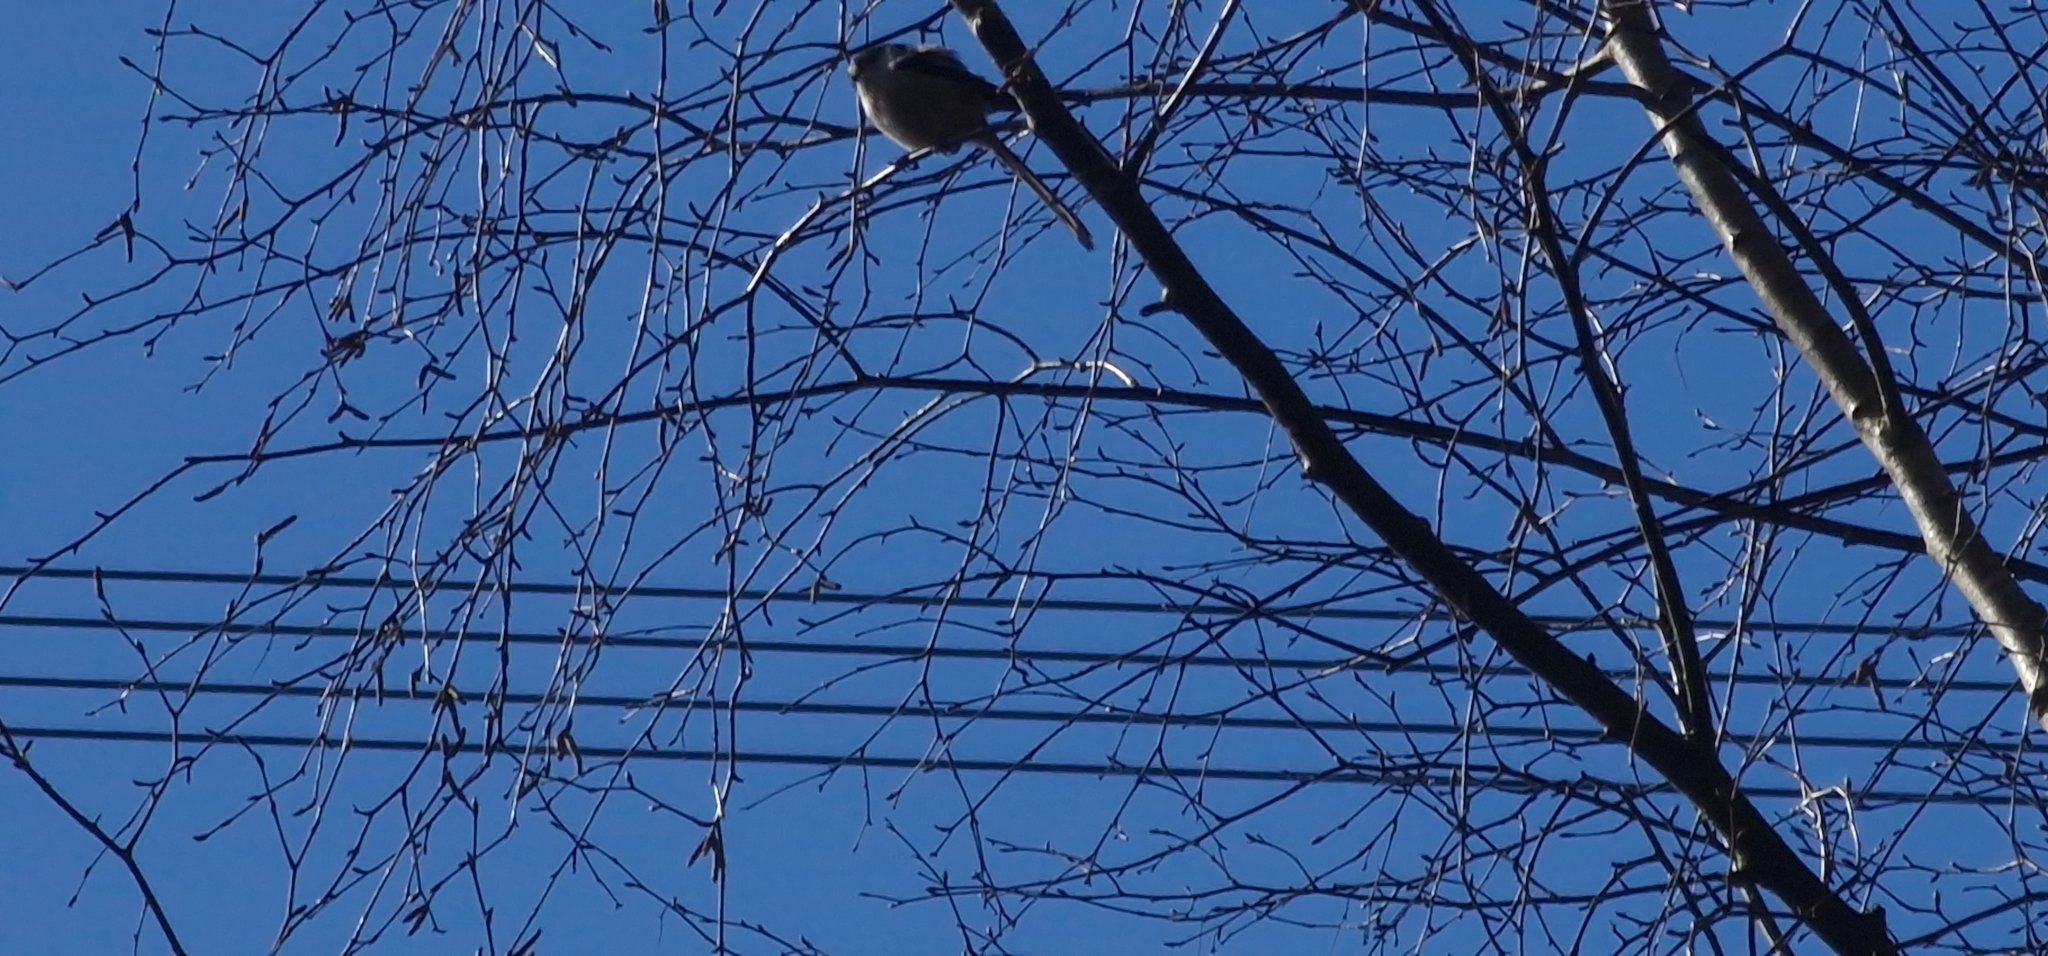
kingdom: Animalia
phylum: Chordata
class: Aves
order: Passeriformes
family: Aegithalidae
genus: Aegithalos
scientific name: Aegithalos caudatus
